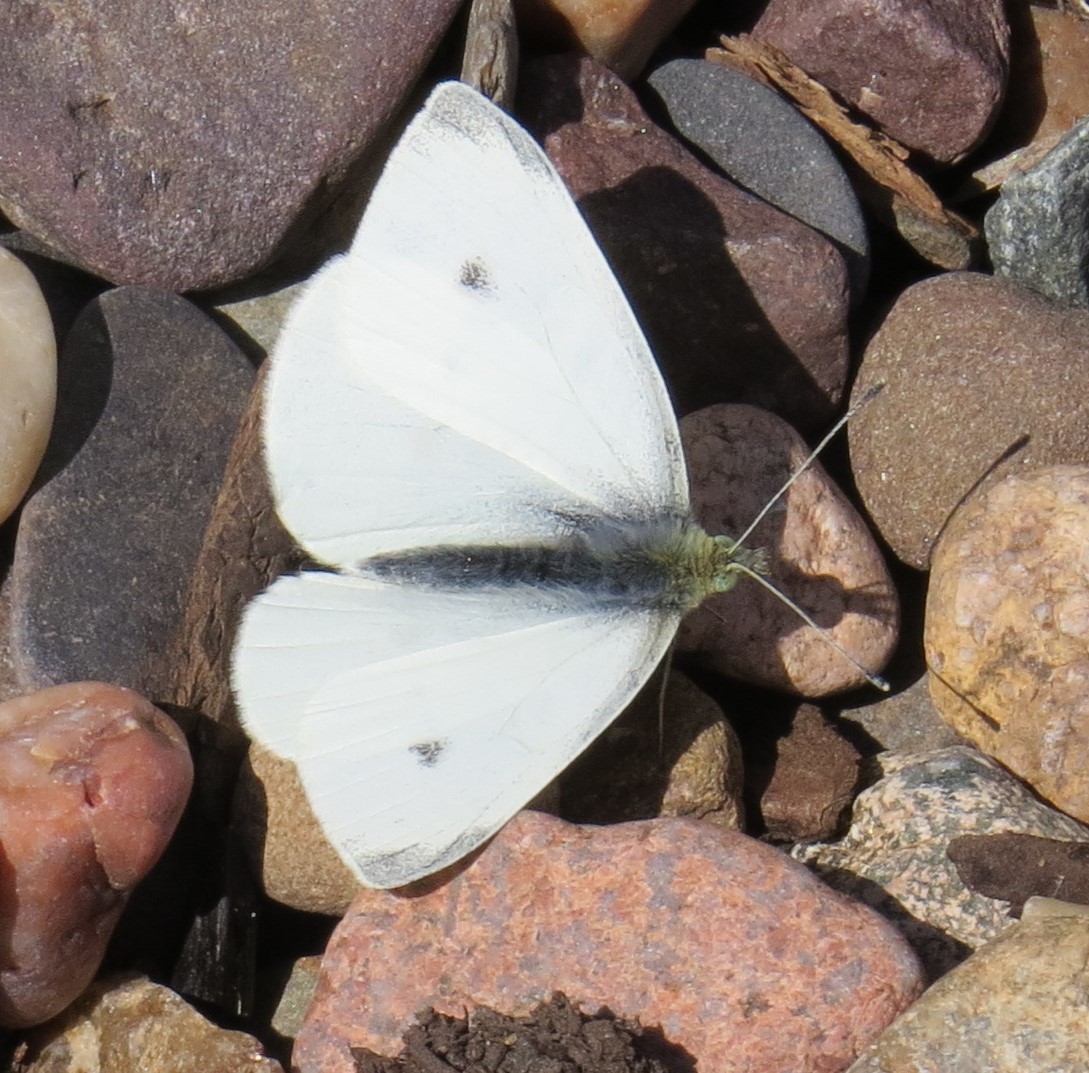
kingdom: Animalia
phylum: Arthropoda
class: Insecta
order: Lepidoptera
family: Pieridae
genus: Pieris
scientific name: Pieris rapae
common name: Small white
